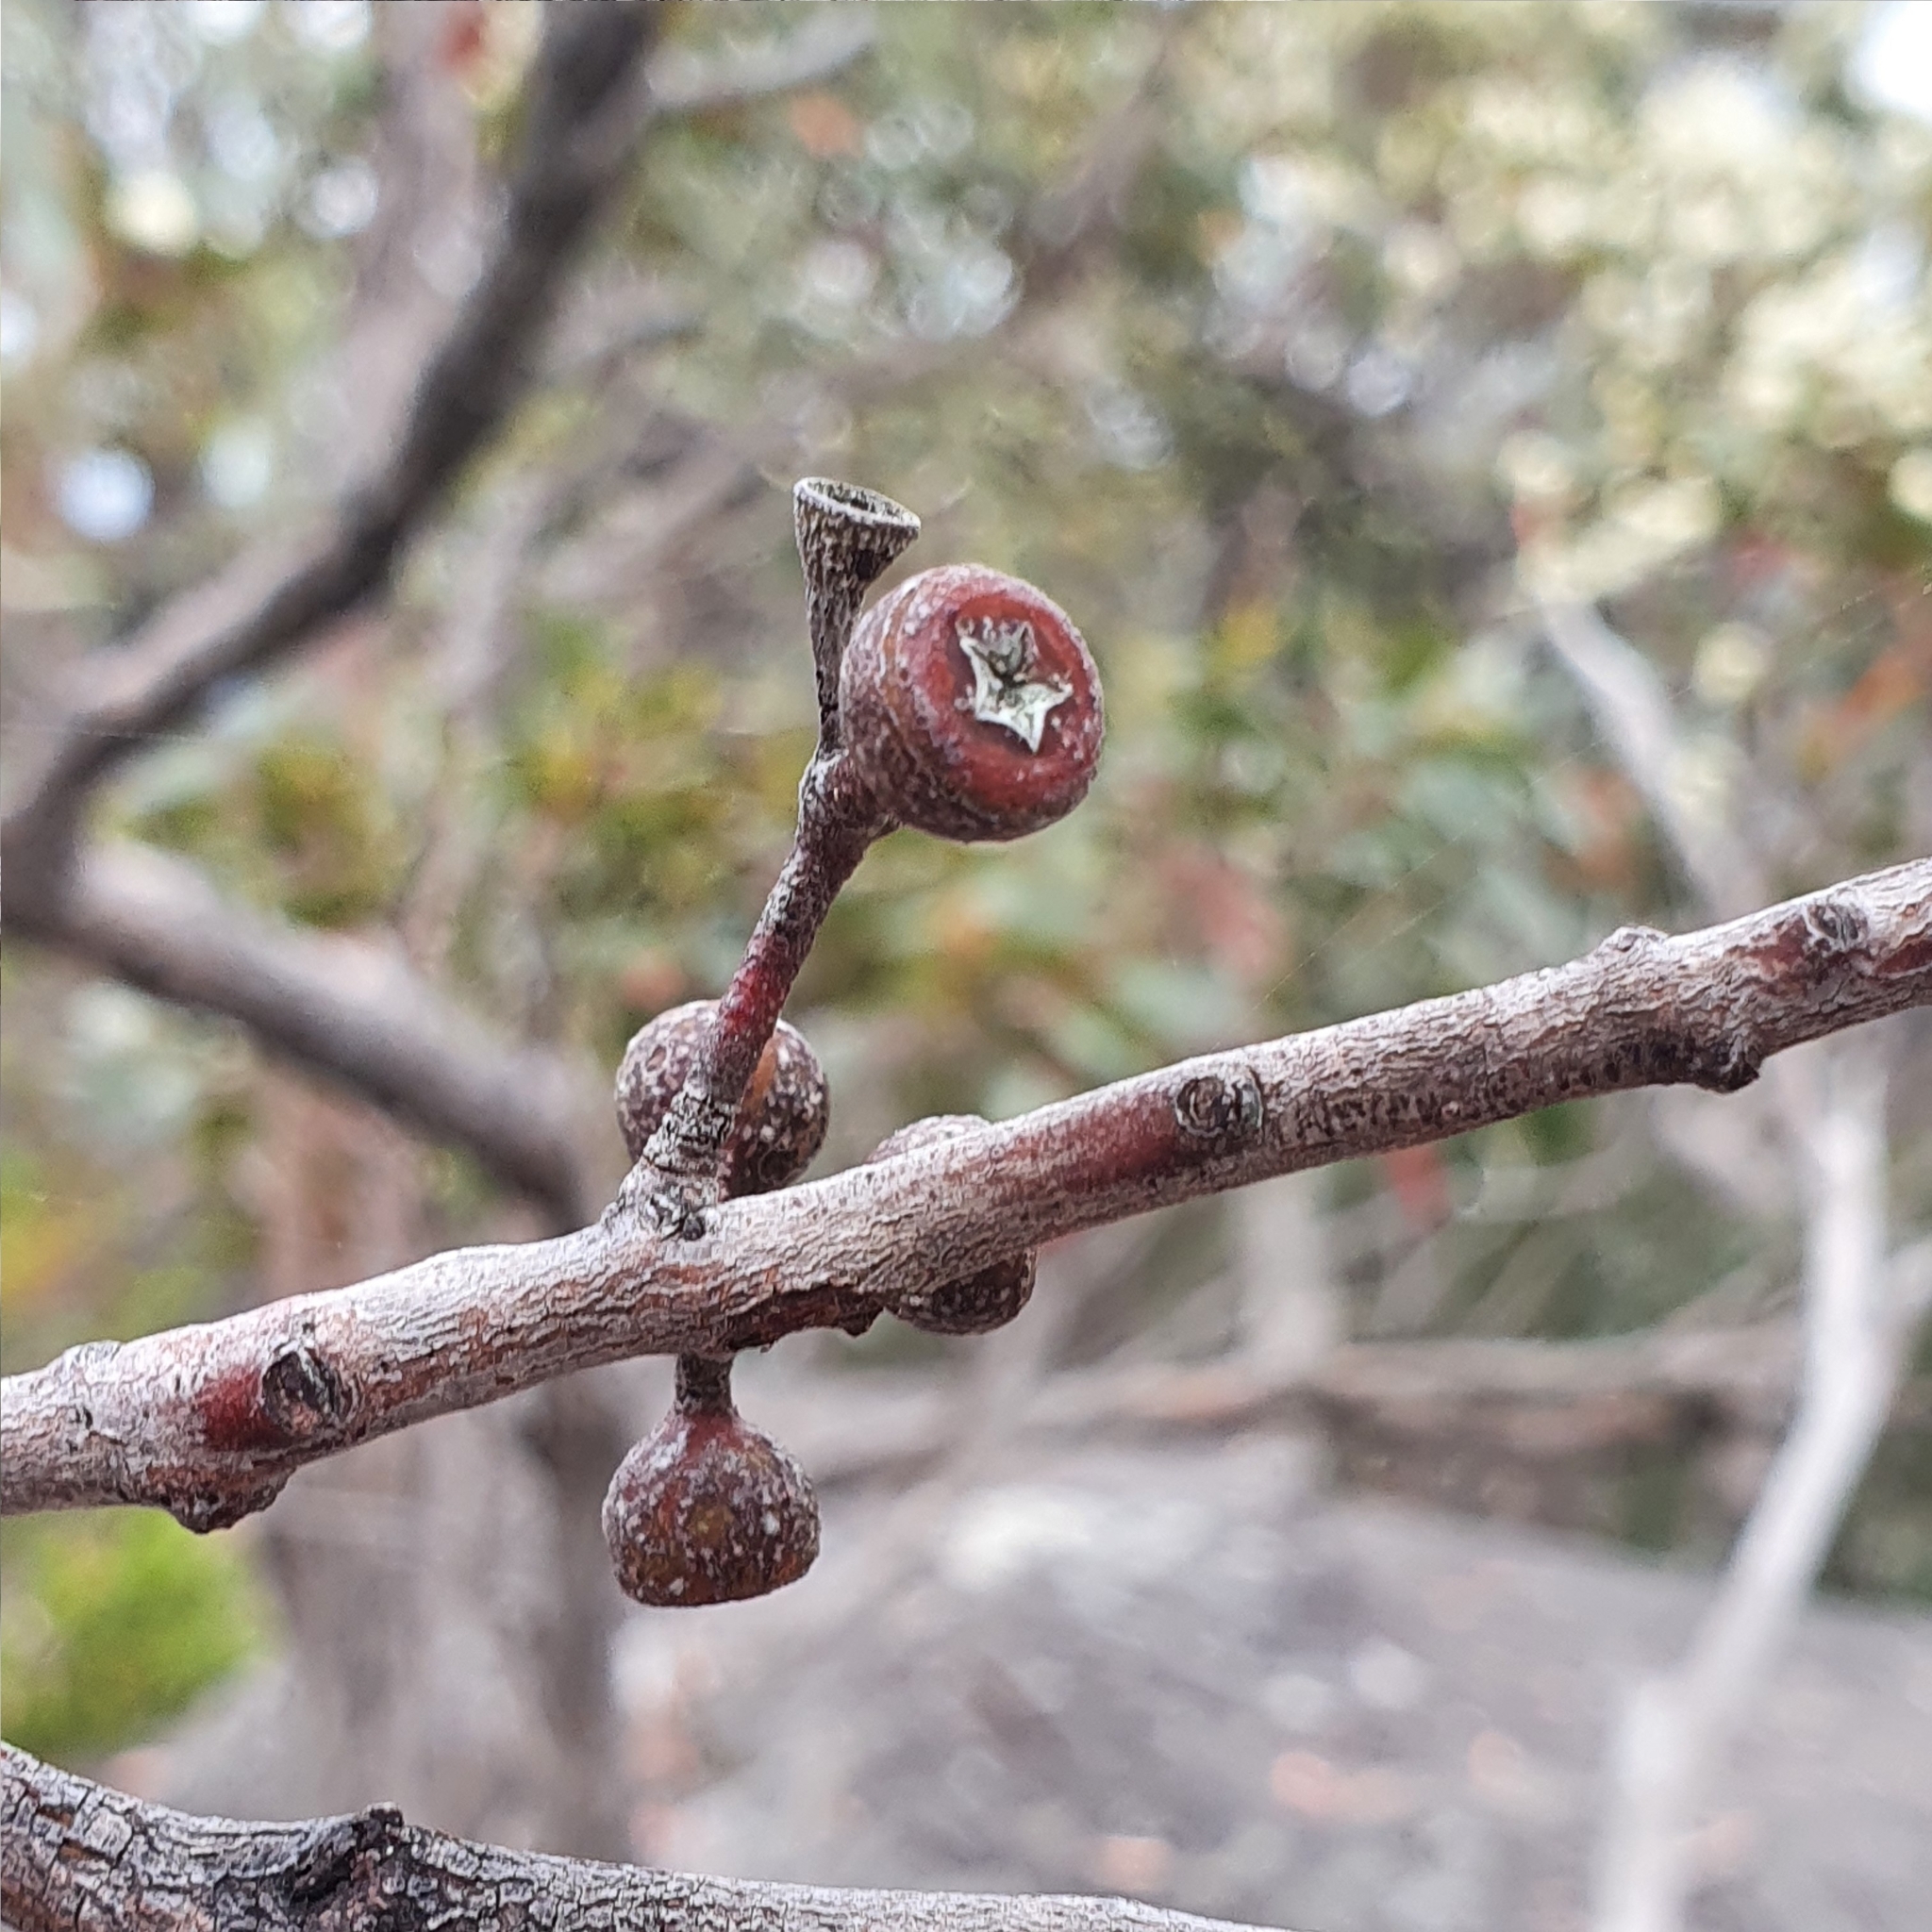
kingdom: Plantae
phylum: Tracheophyta
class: Magnoliopsida
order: Myrtales
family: Myrtaceae
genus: Eucalyptus
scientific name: Eucalyptus umbra
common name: White-mahogany
